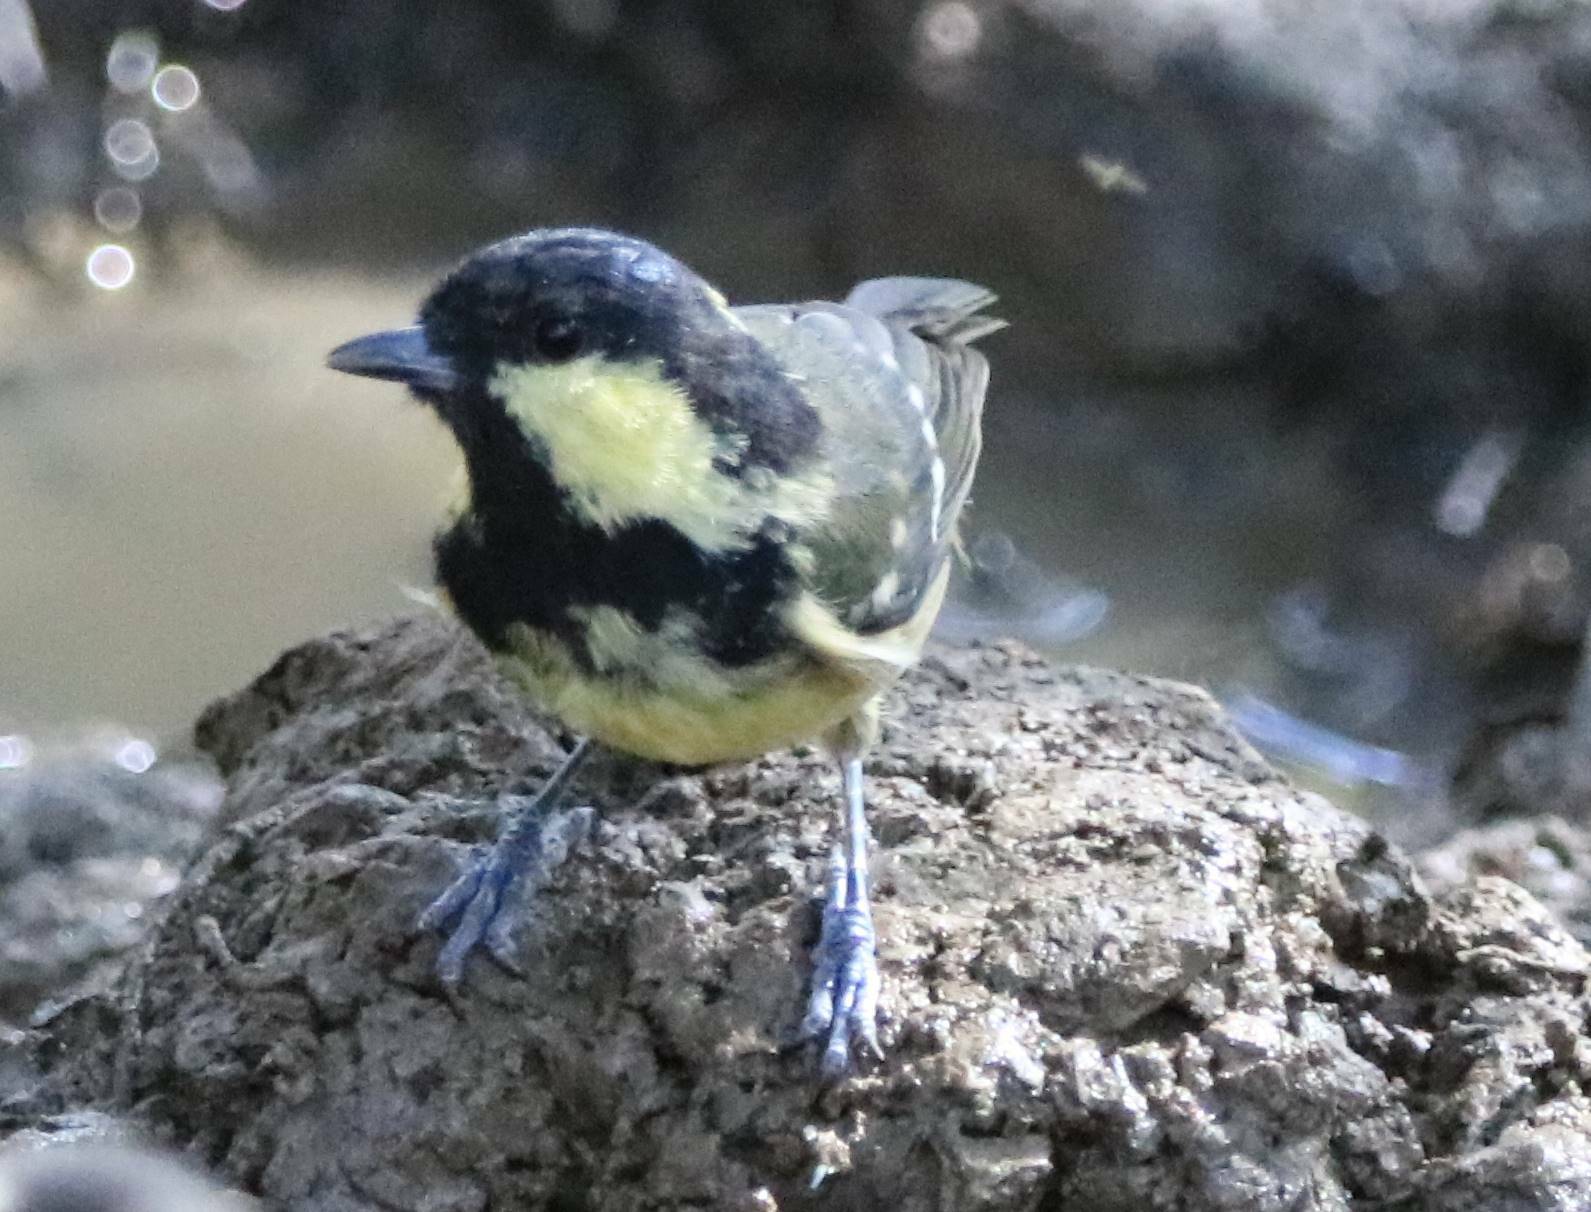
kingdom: Animalia
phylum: Chordata
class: Aves
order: Passeriformes
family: Paridae
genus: Periparus
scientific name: Periparus ater
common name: Coal tit
